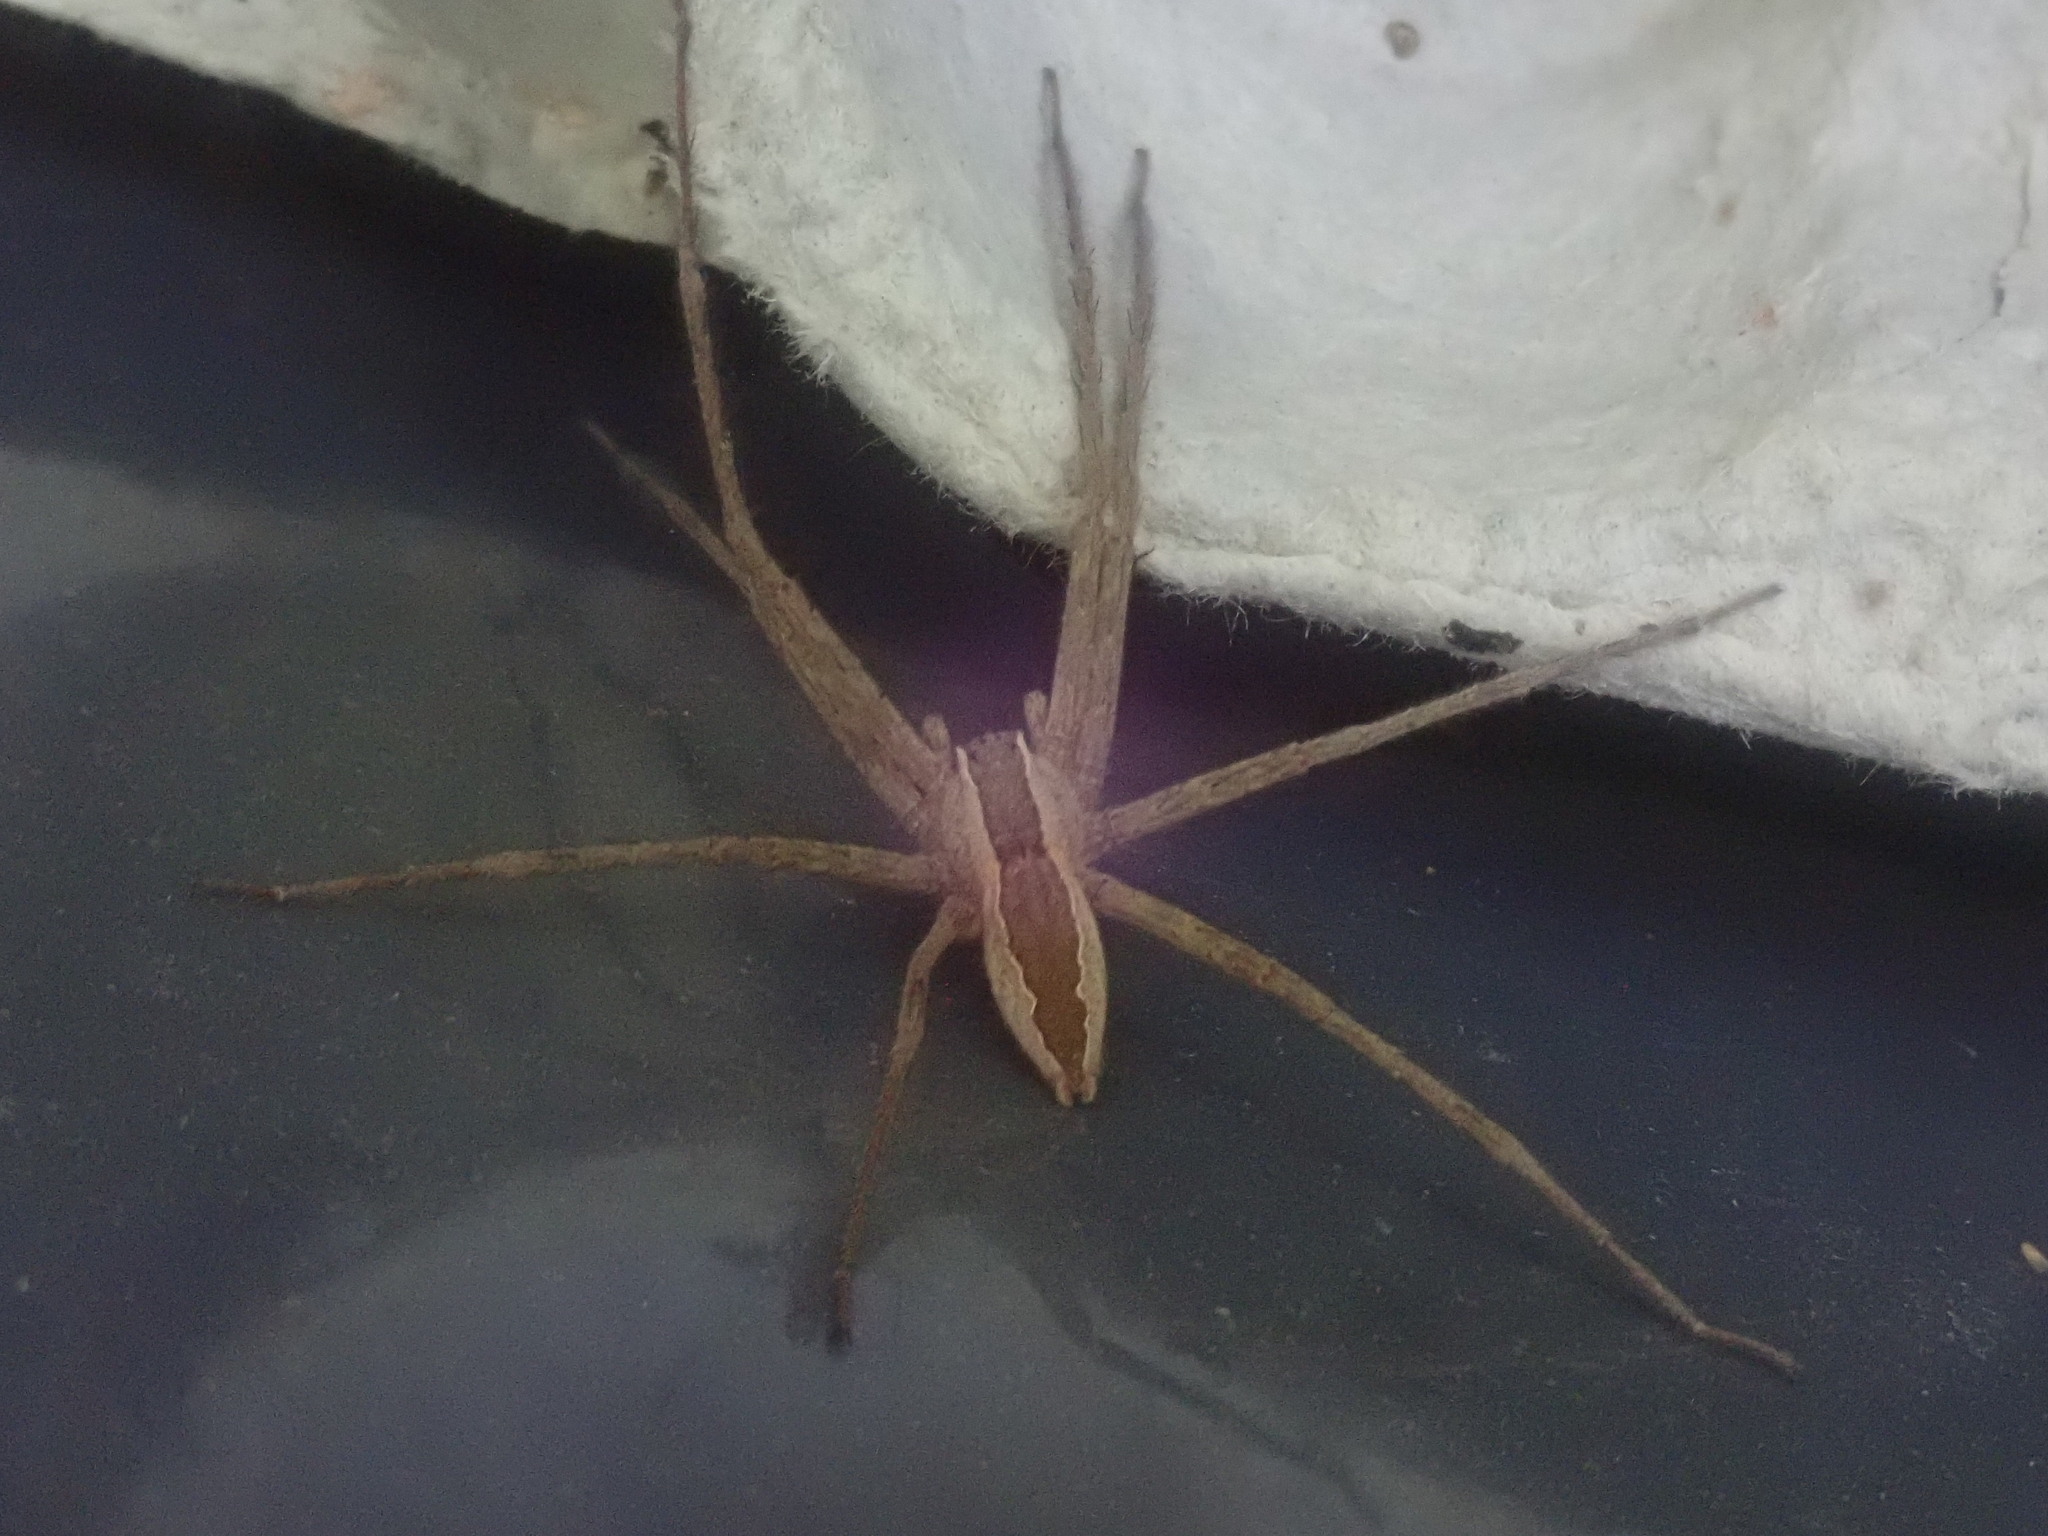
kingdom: Animalia
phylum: Arthropoda
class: Arachnida
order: Araneae
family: Pisauridae
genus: Pisaurina
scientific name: Pisaurina mira
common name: American nursery web spider
